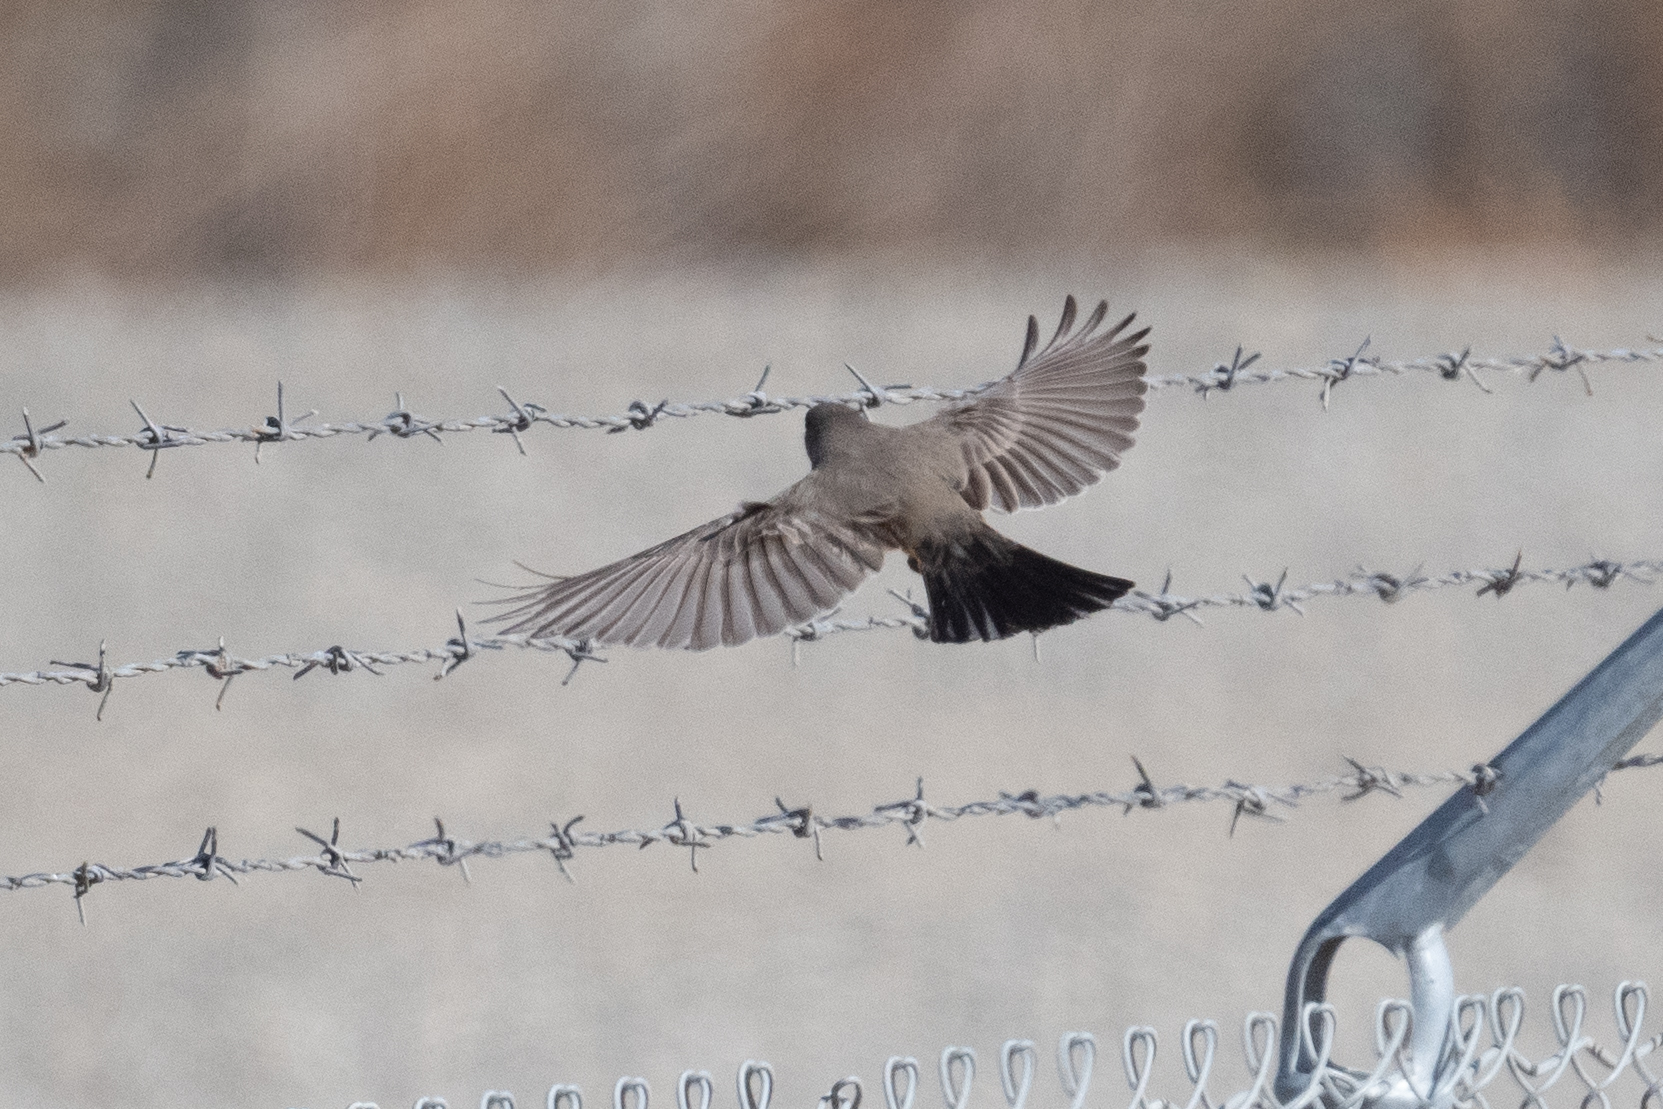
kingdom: Animalia
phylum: Chordata
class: Aves
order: Passeriformes
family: Tyrannidae
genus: Sayornis
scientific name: Sayornis saya
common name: Say's phoebe
